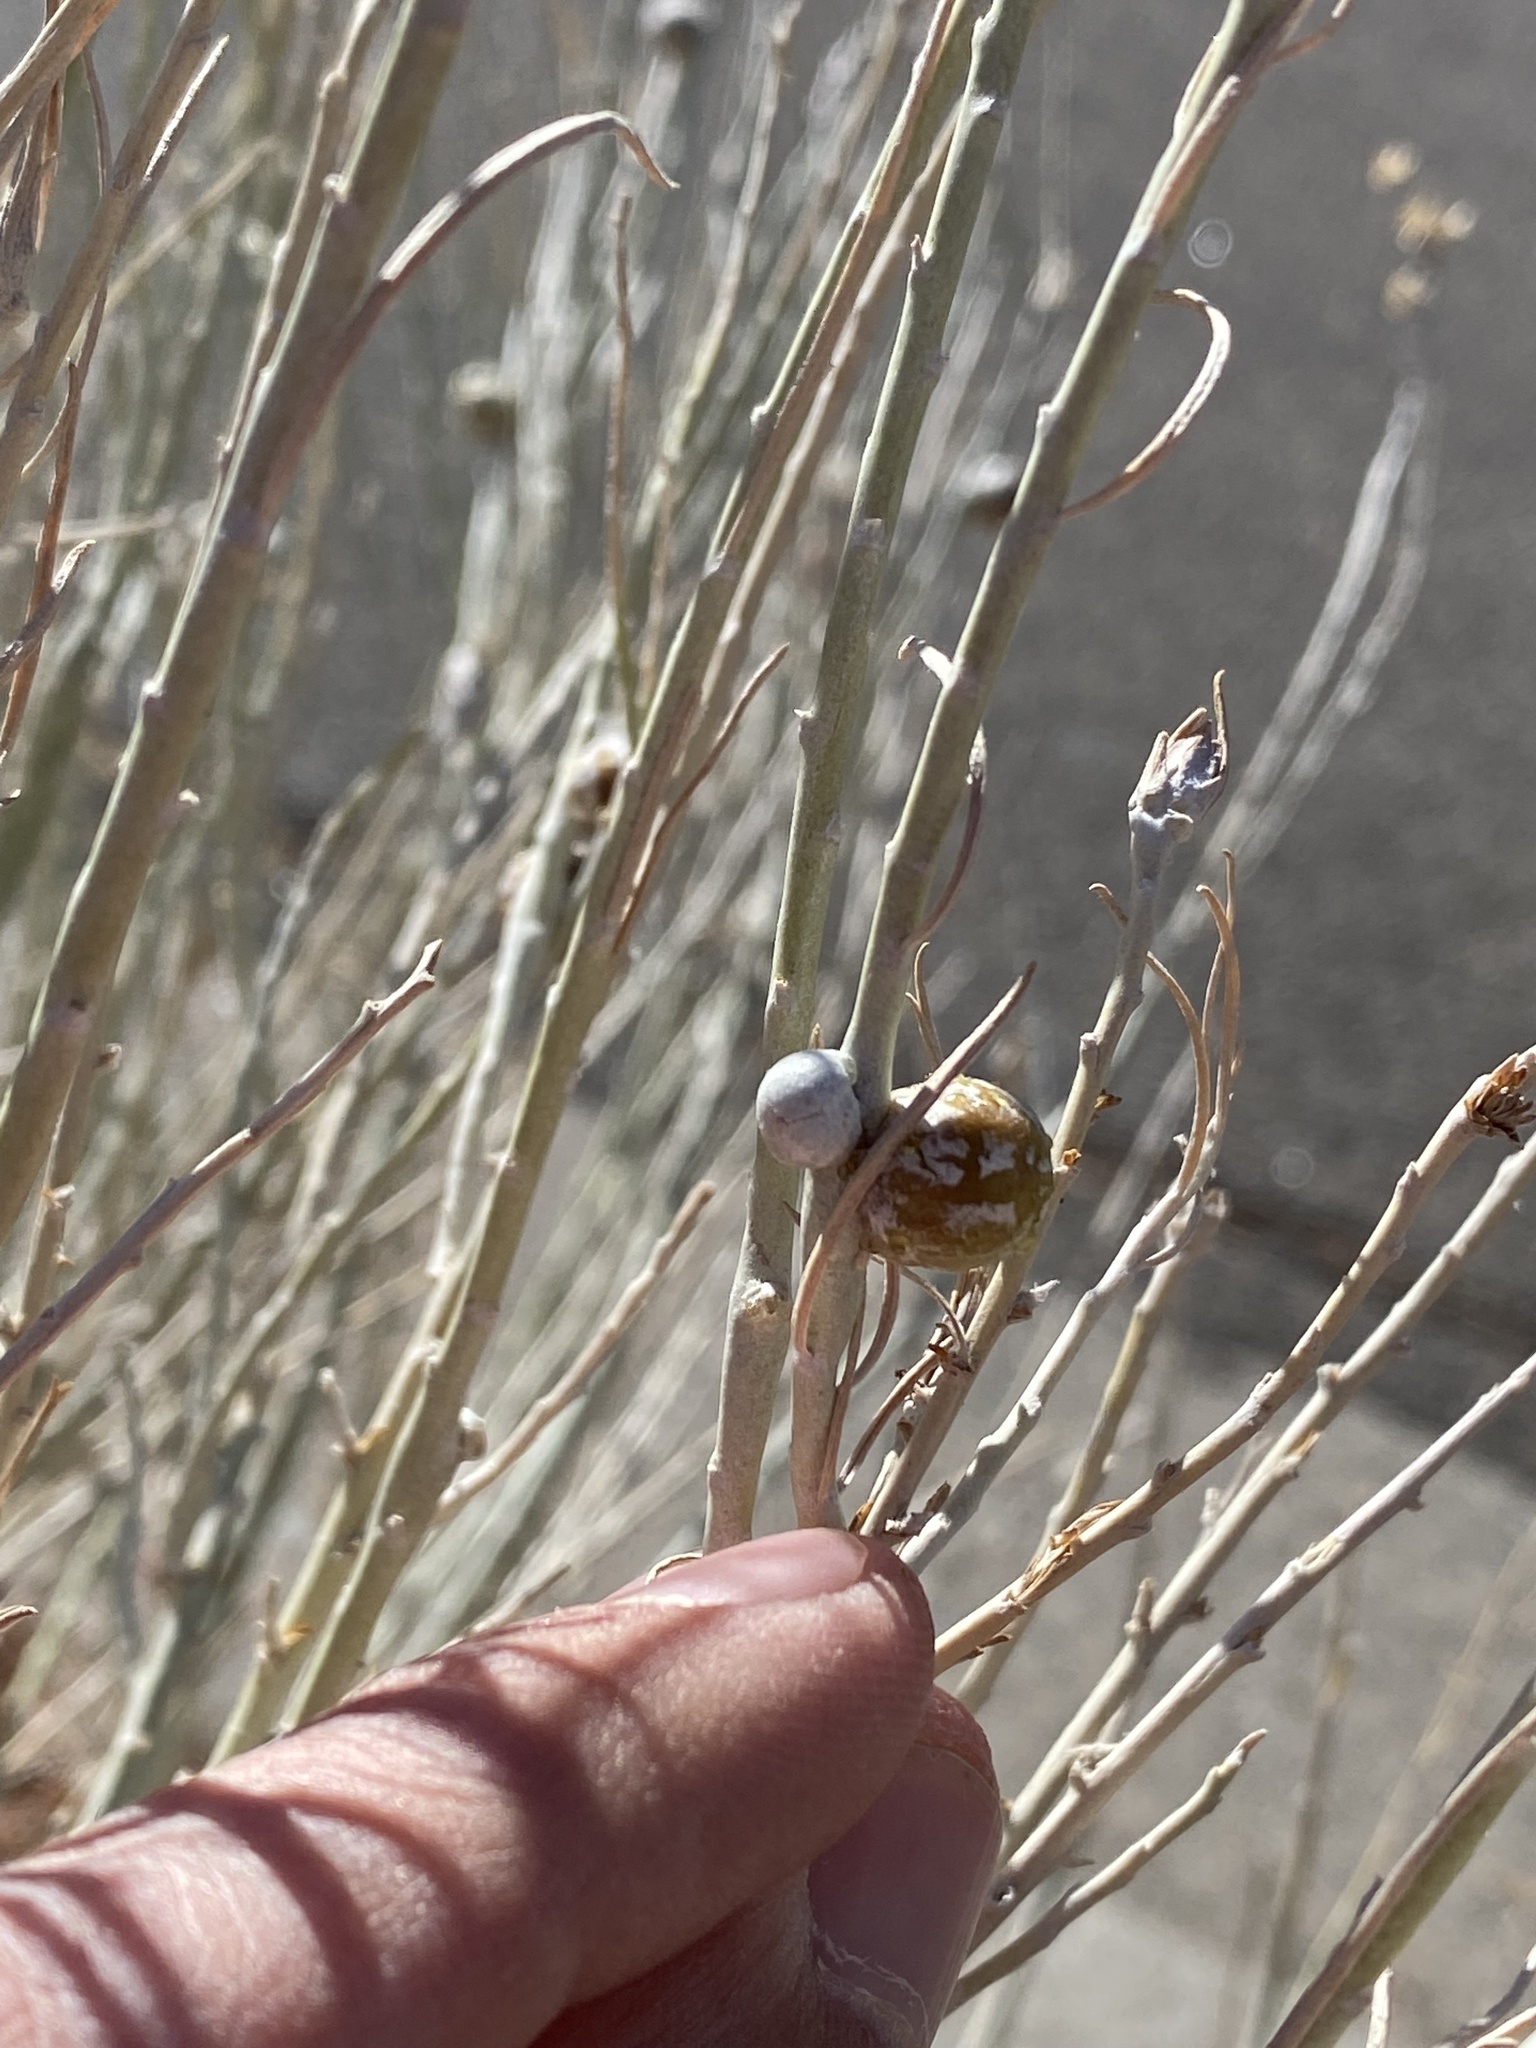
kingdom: Animalia
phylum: Arthropoda
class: Insecta
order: Diptera
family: Tephritidae
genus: Aciurina
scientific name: Aciurina trixa
